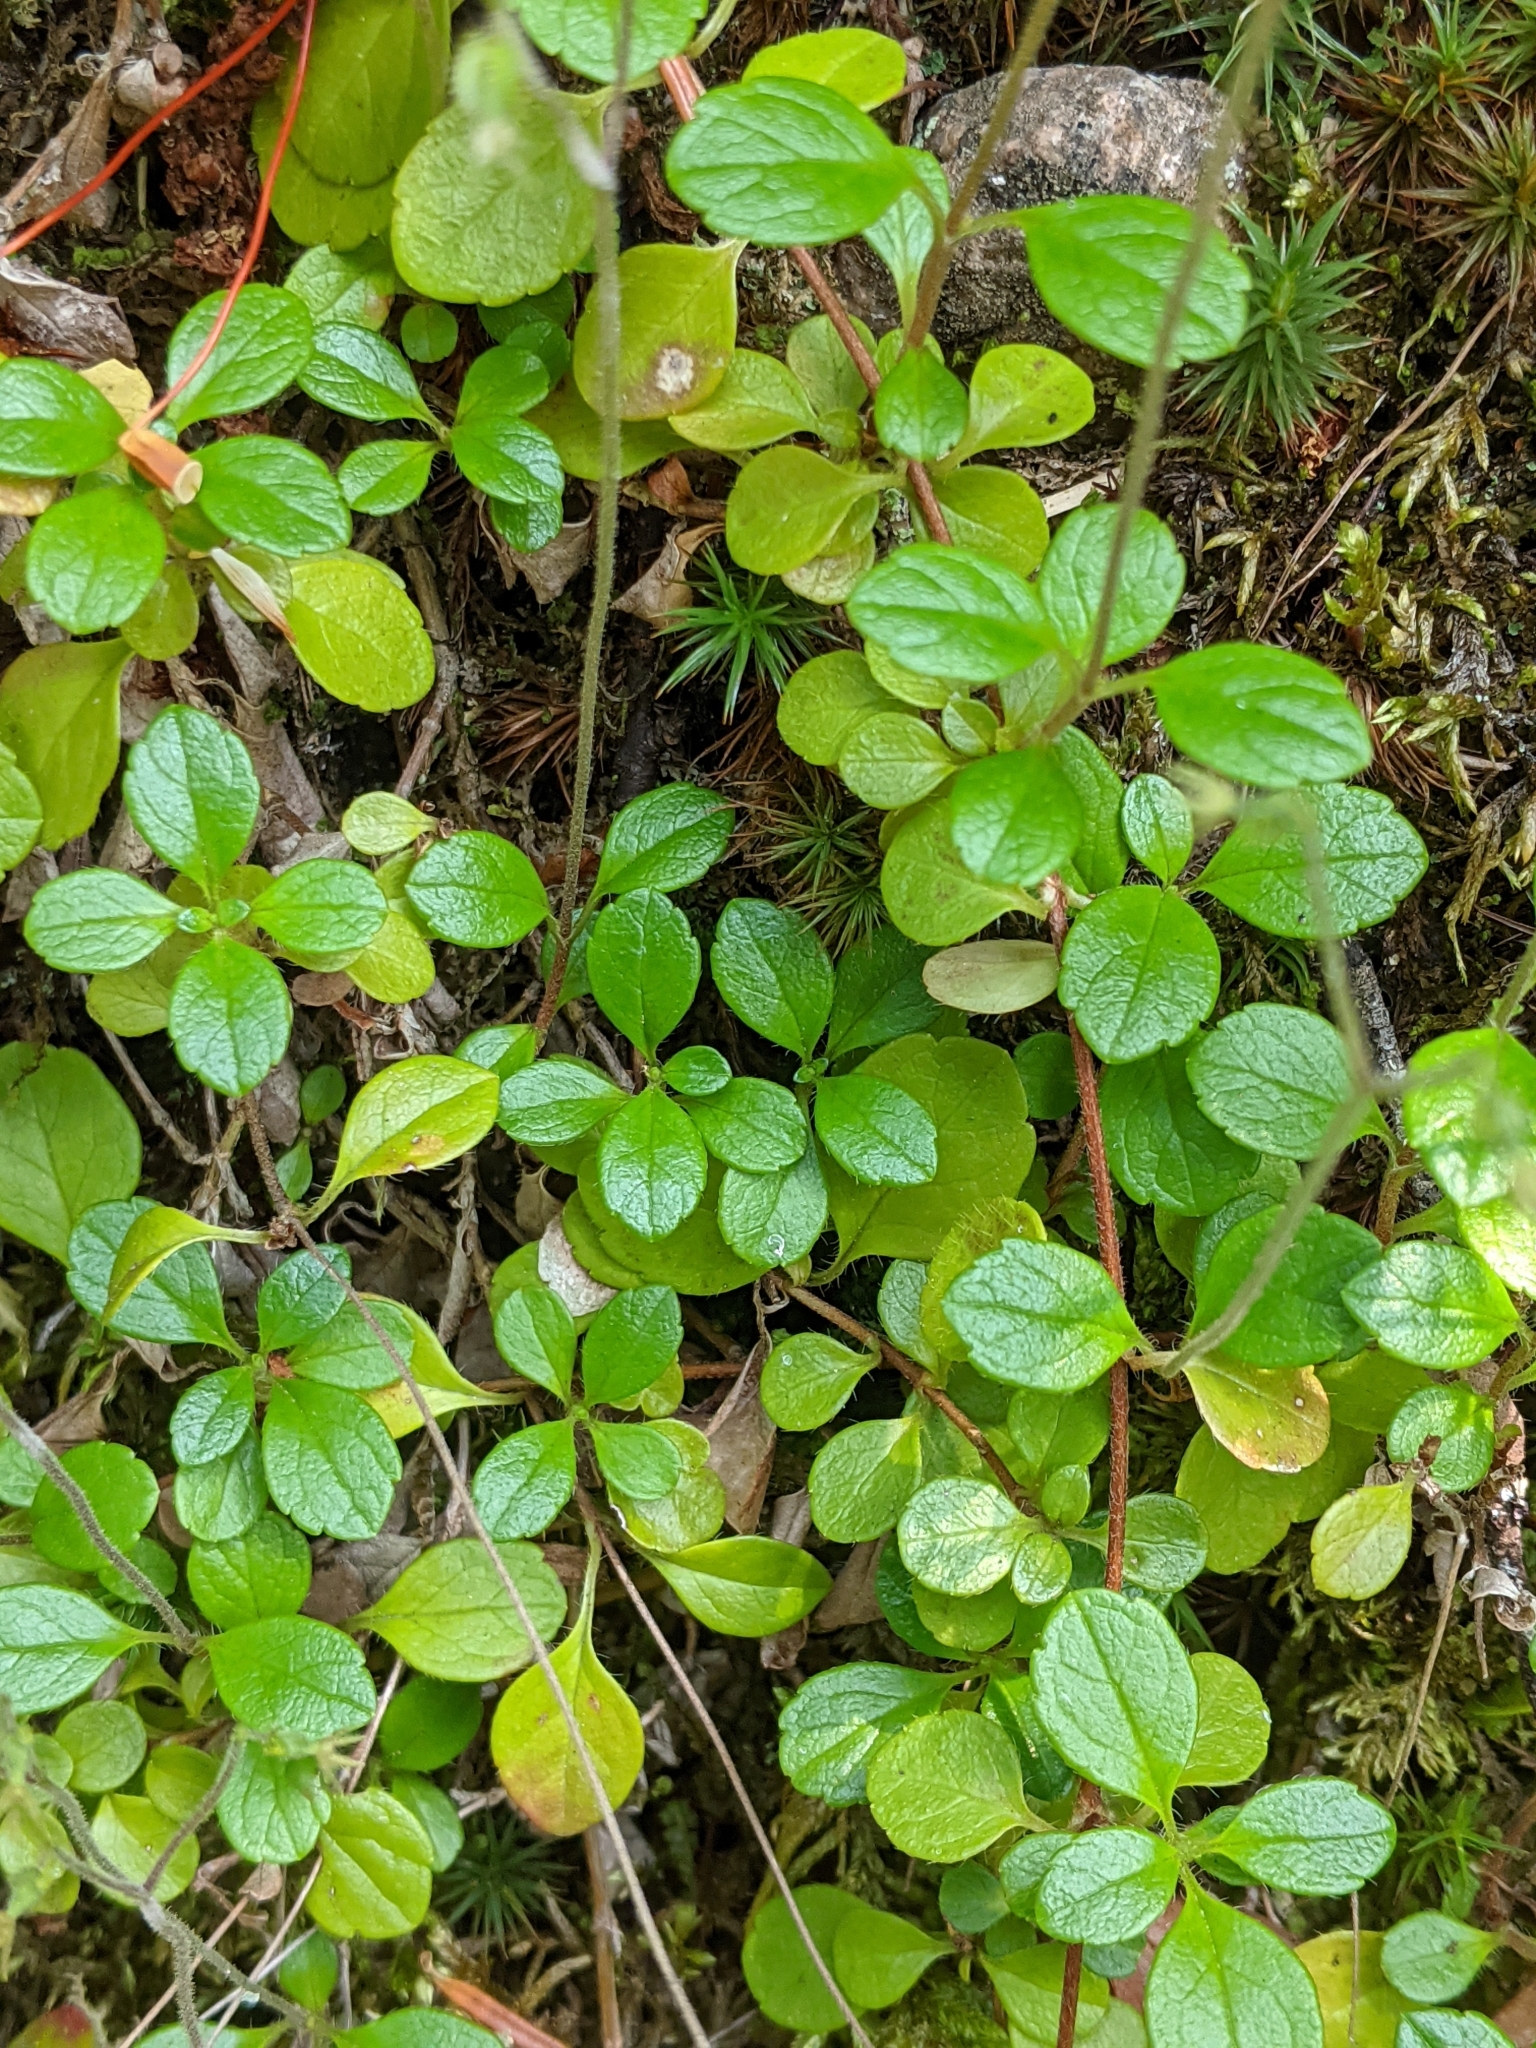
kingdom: Plantae
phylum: Tracheophyta
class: Magnoliopsida
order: Dipsacales
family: Caprifoliaceae
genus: Linnaea
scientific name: Linnaea borealis
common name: Twinflower
